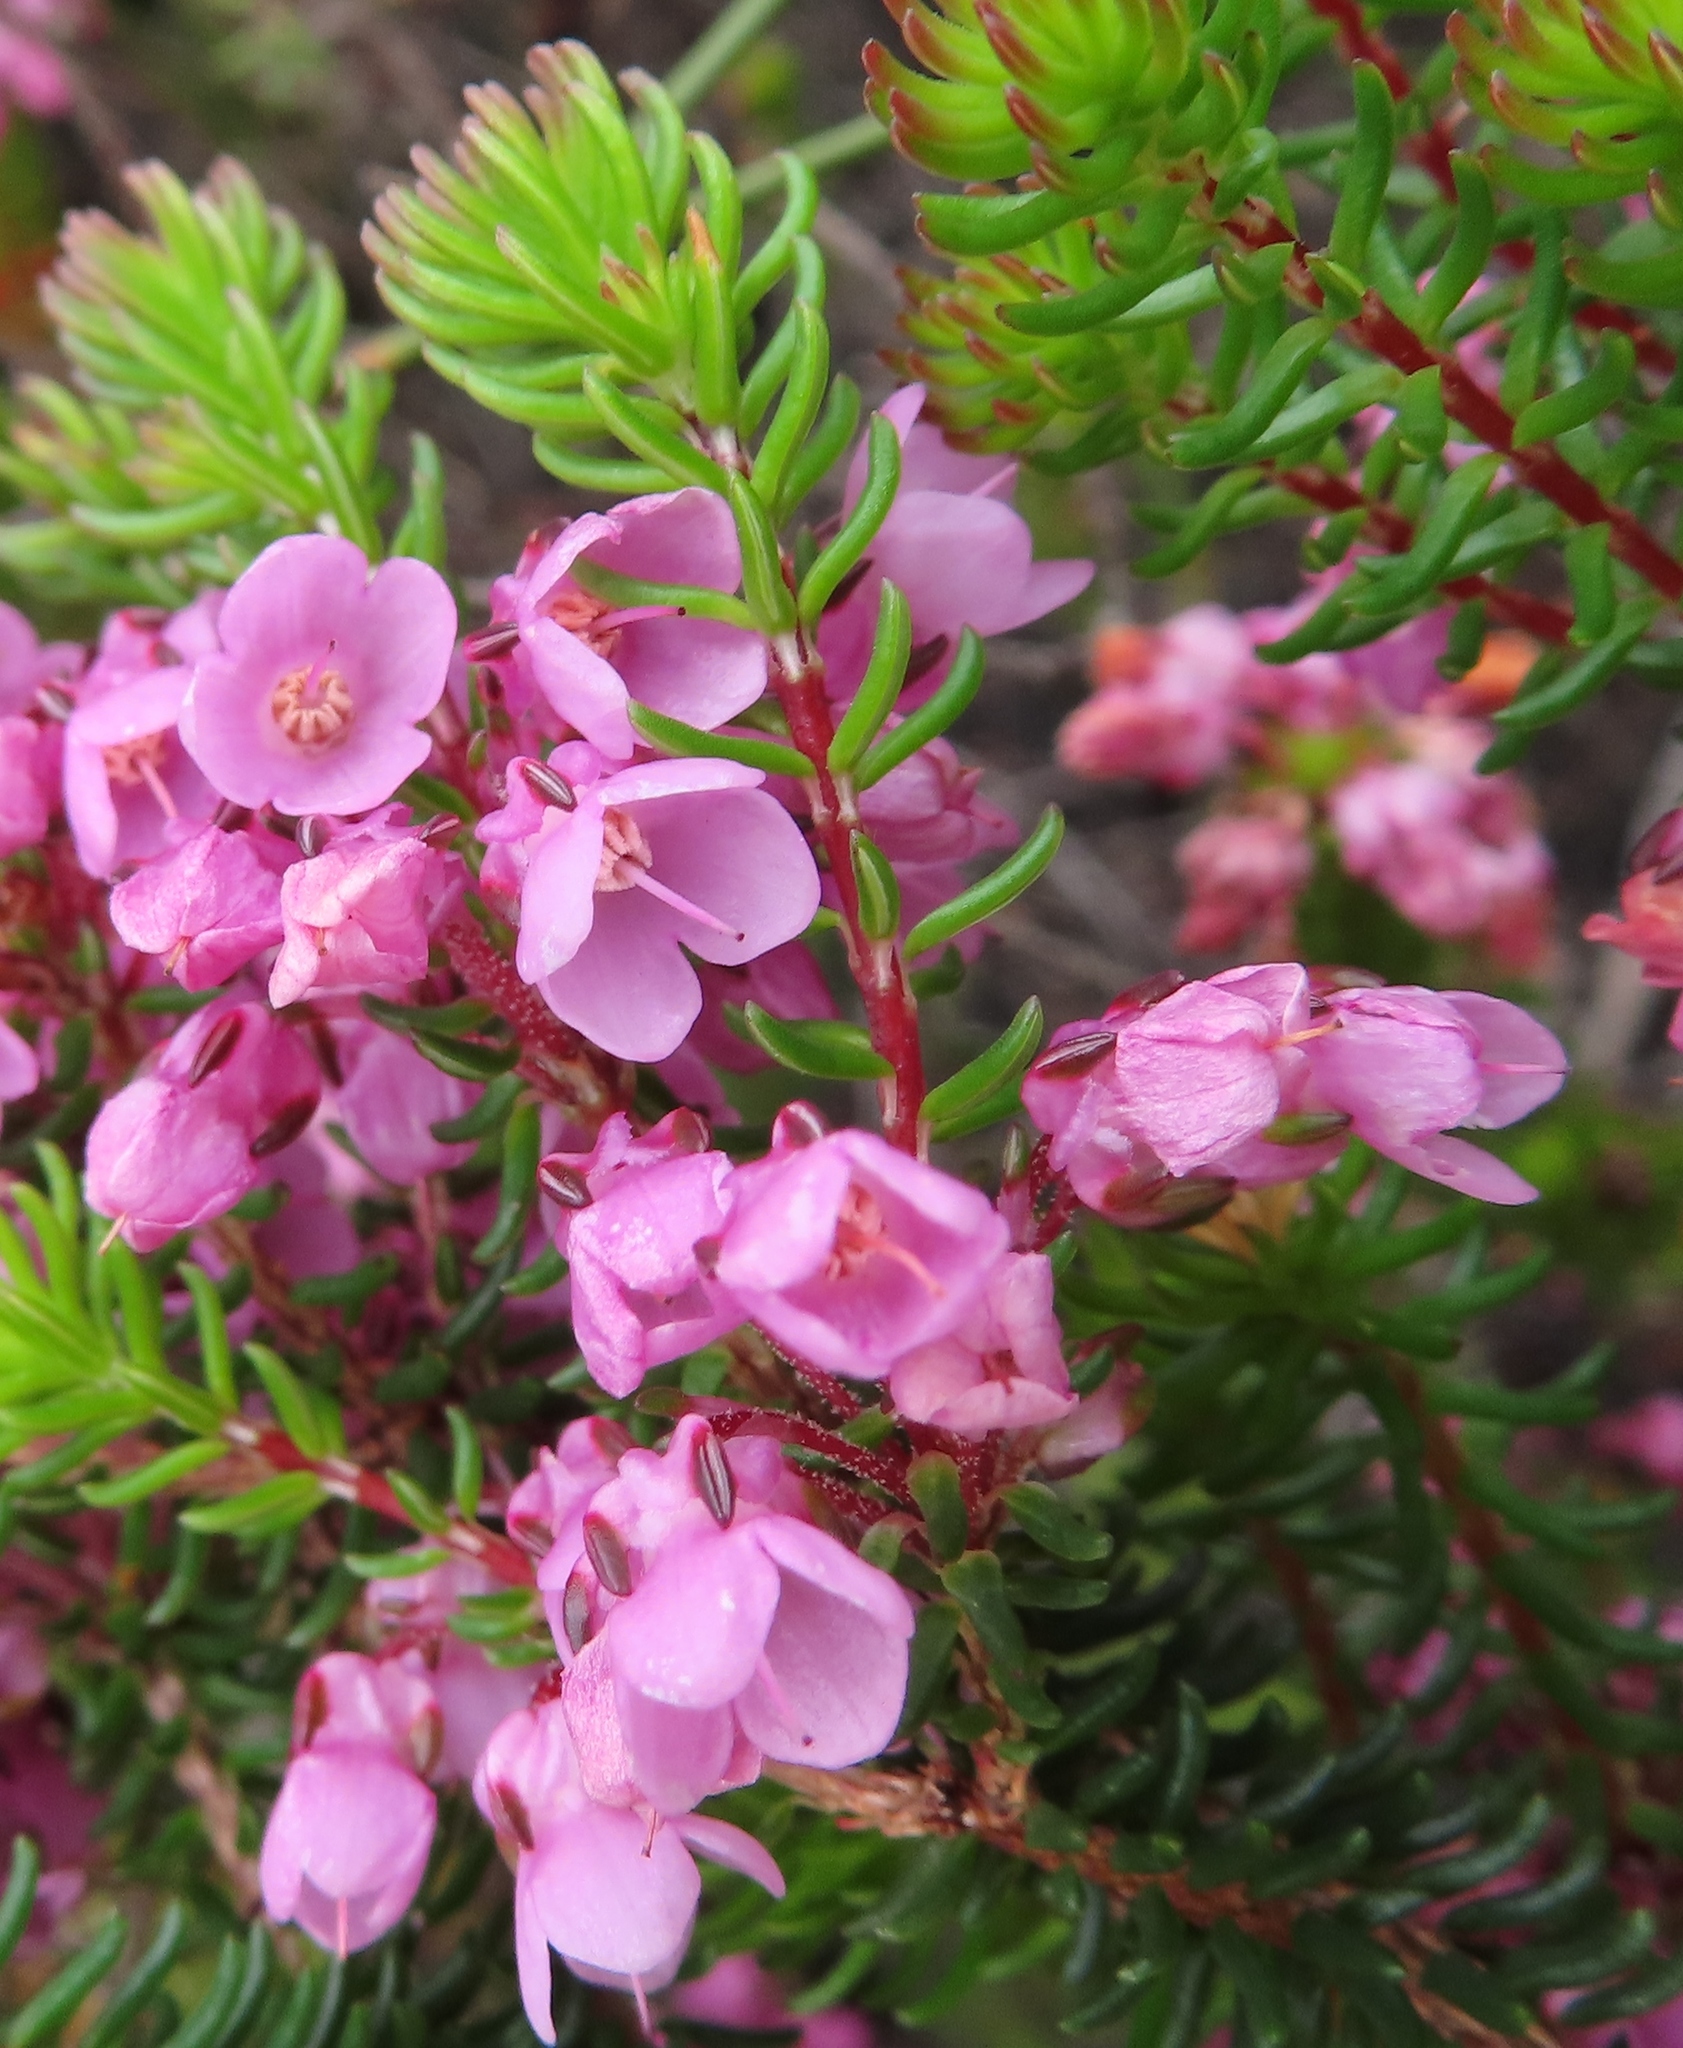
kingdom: Plantae
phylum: Tracheophyta
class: Magnoliopsida
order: Ericales
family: Ericaceae
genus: Erica
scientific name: Erica cubica
